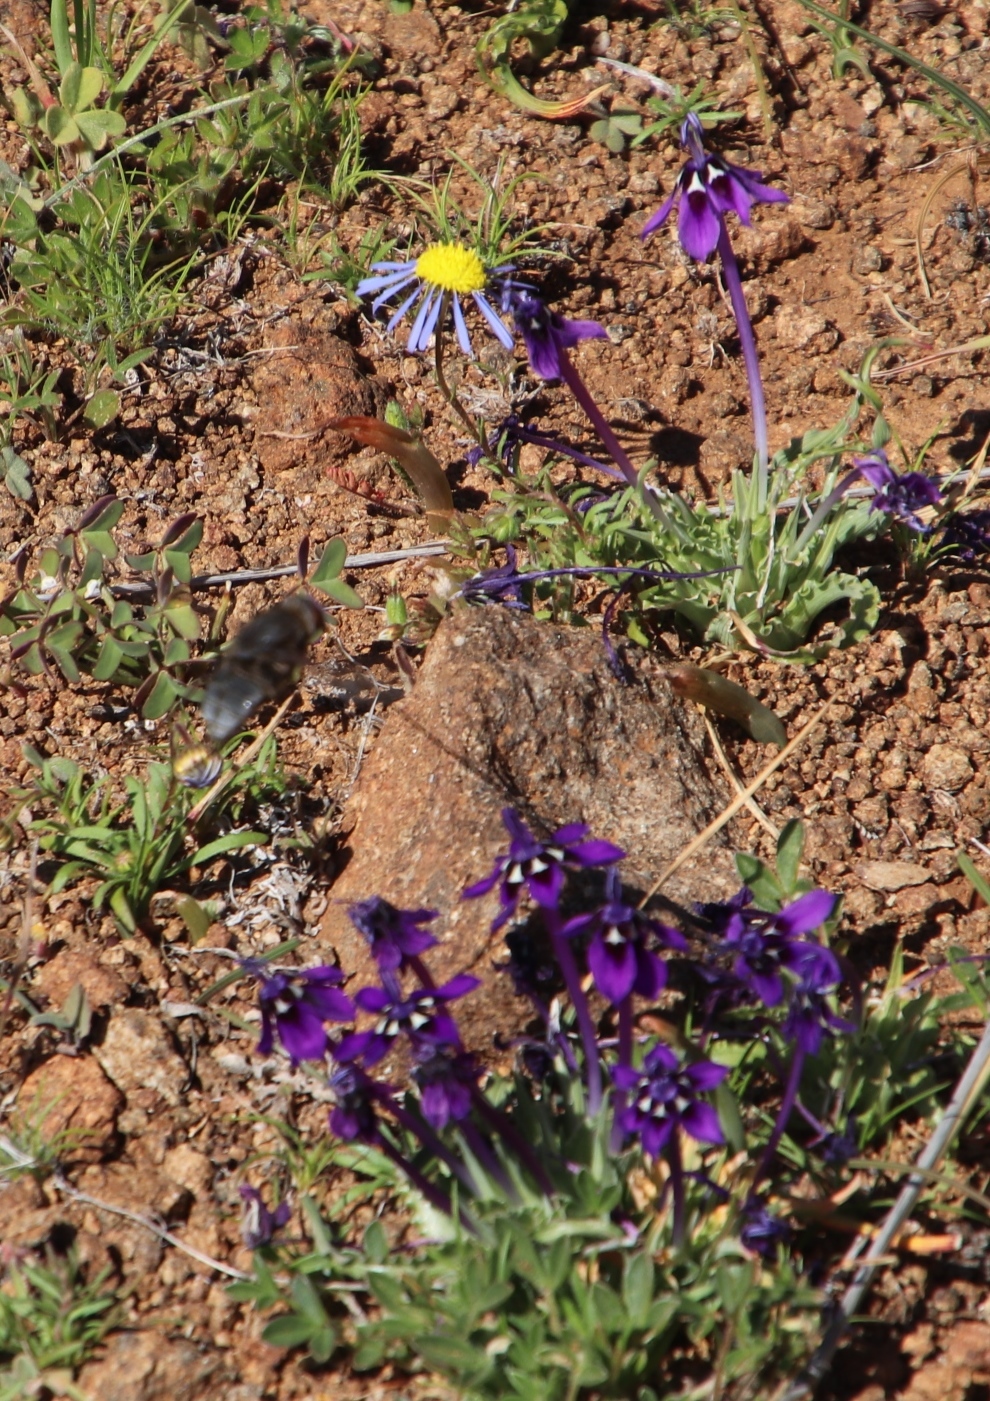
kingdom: Plantae
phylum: Tracheophyta
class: Liliopsida
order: Asparagales
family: Iridaceae
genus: Lapeirousia
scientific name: Lapeirousia oreogena
